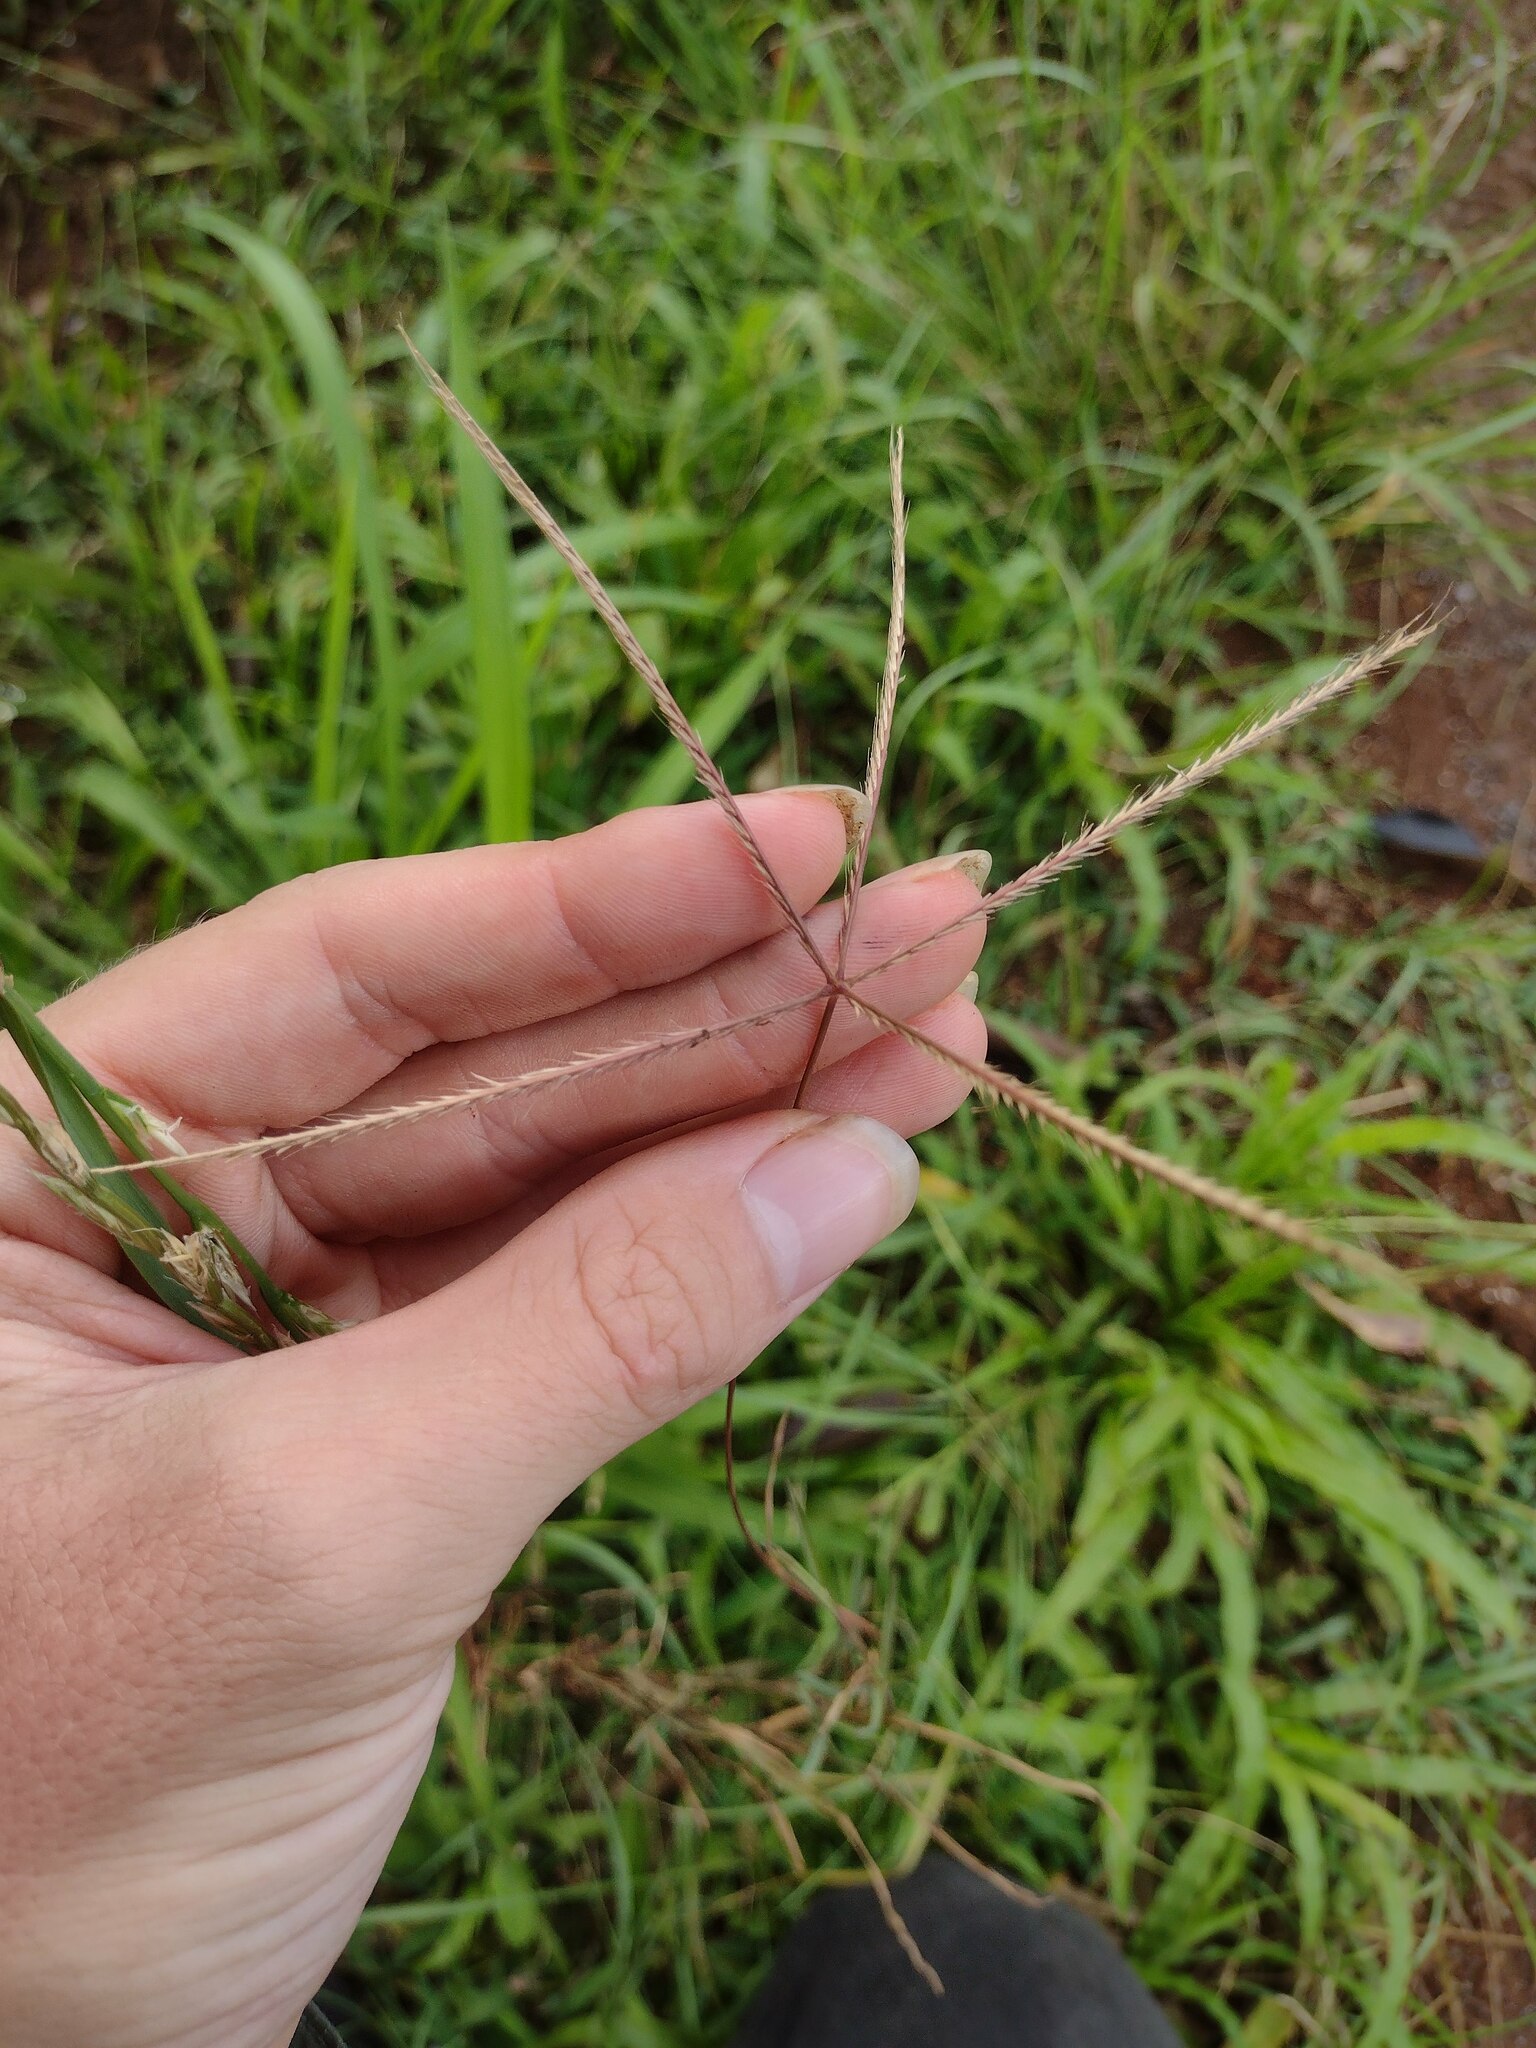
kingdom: Plantae
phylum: Tracheophyta
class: Liliopsida
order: Poales
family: Poaceae
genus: Chloris
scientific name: Chloris divaricata
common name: Spreading windmill grass
